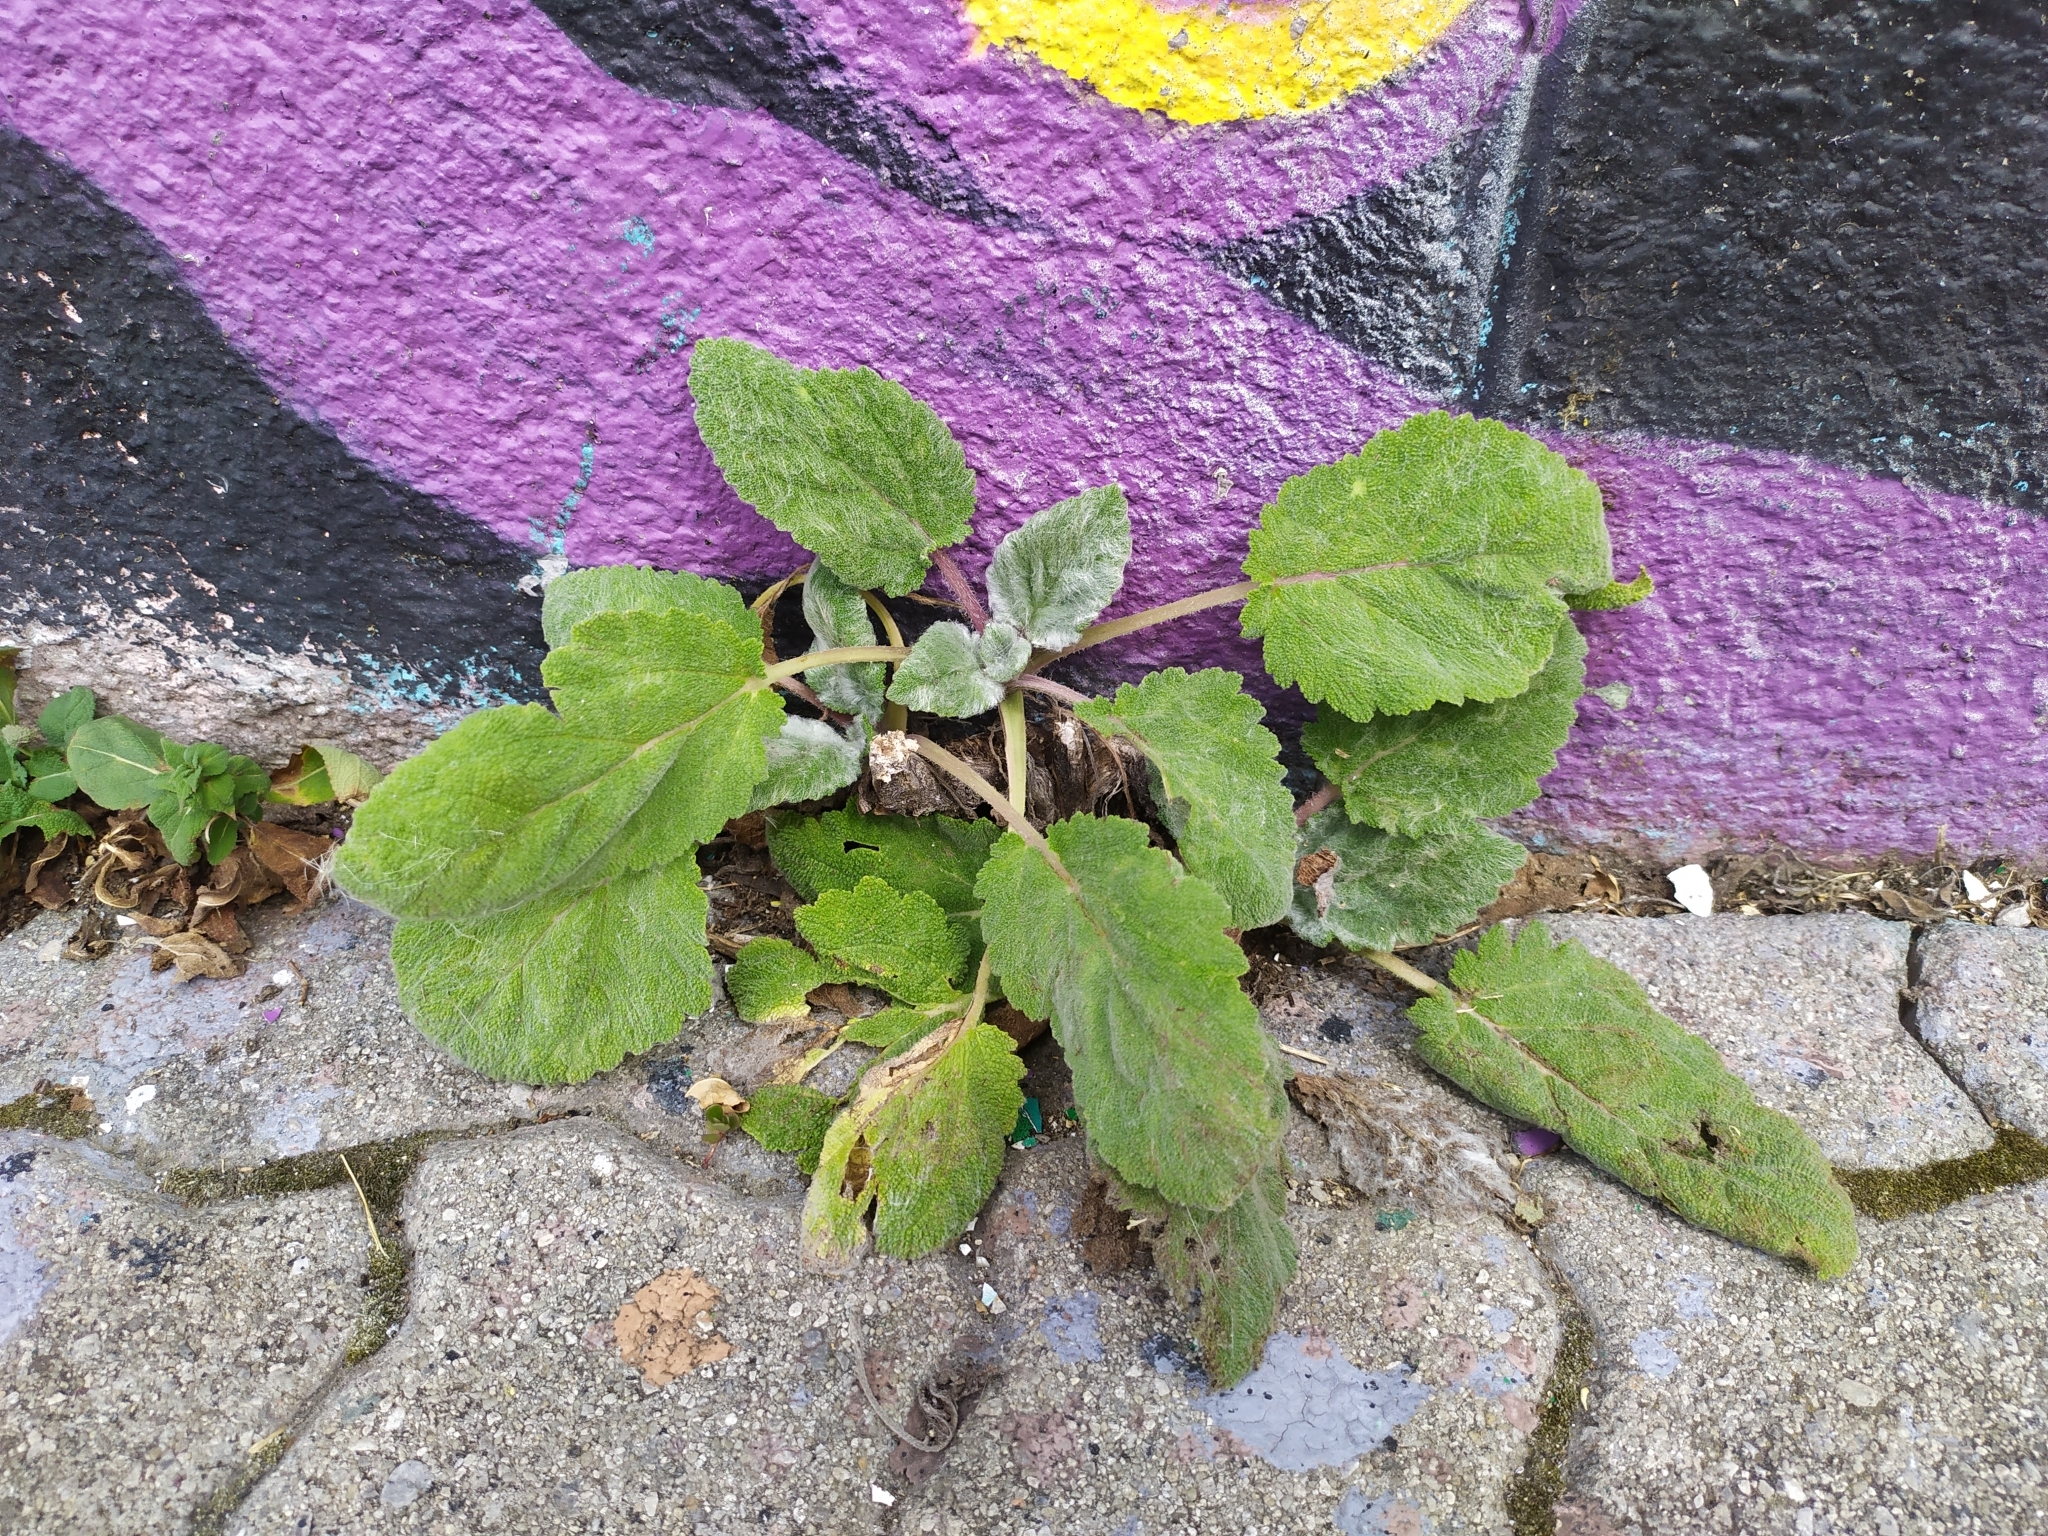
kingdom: Plantae
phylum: Tracheophyta
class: Magnoliopsida
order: Lamiales
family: Lamiaceae
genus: Salvia
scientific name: Salvia sclarea
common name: Clary
